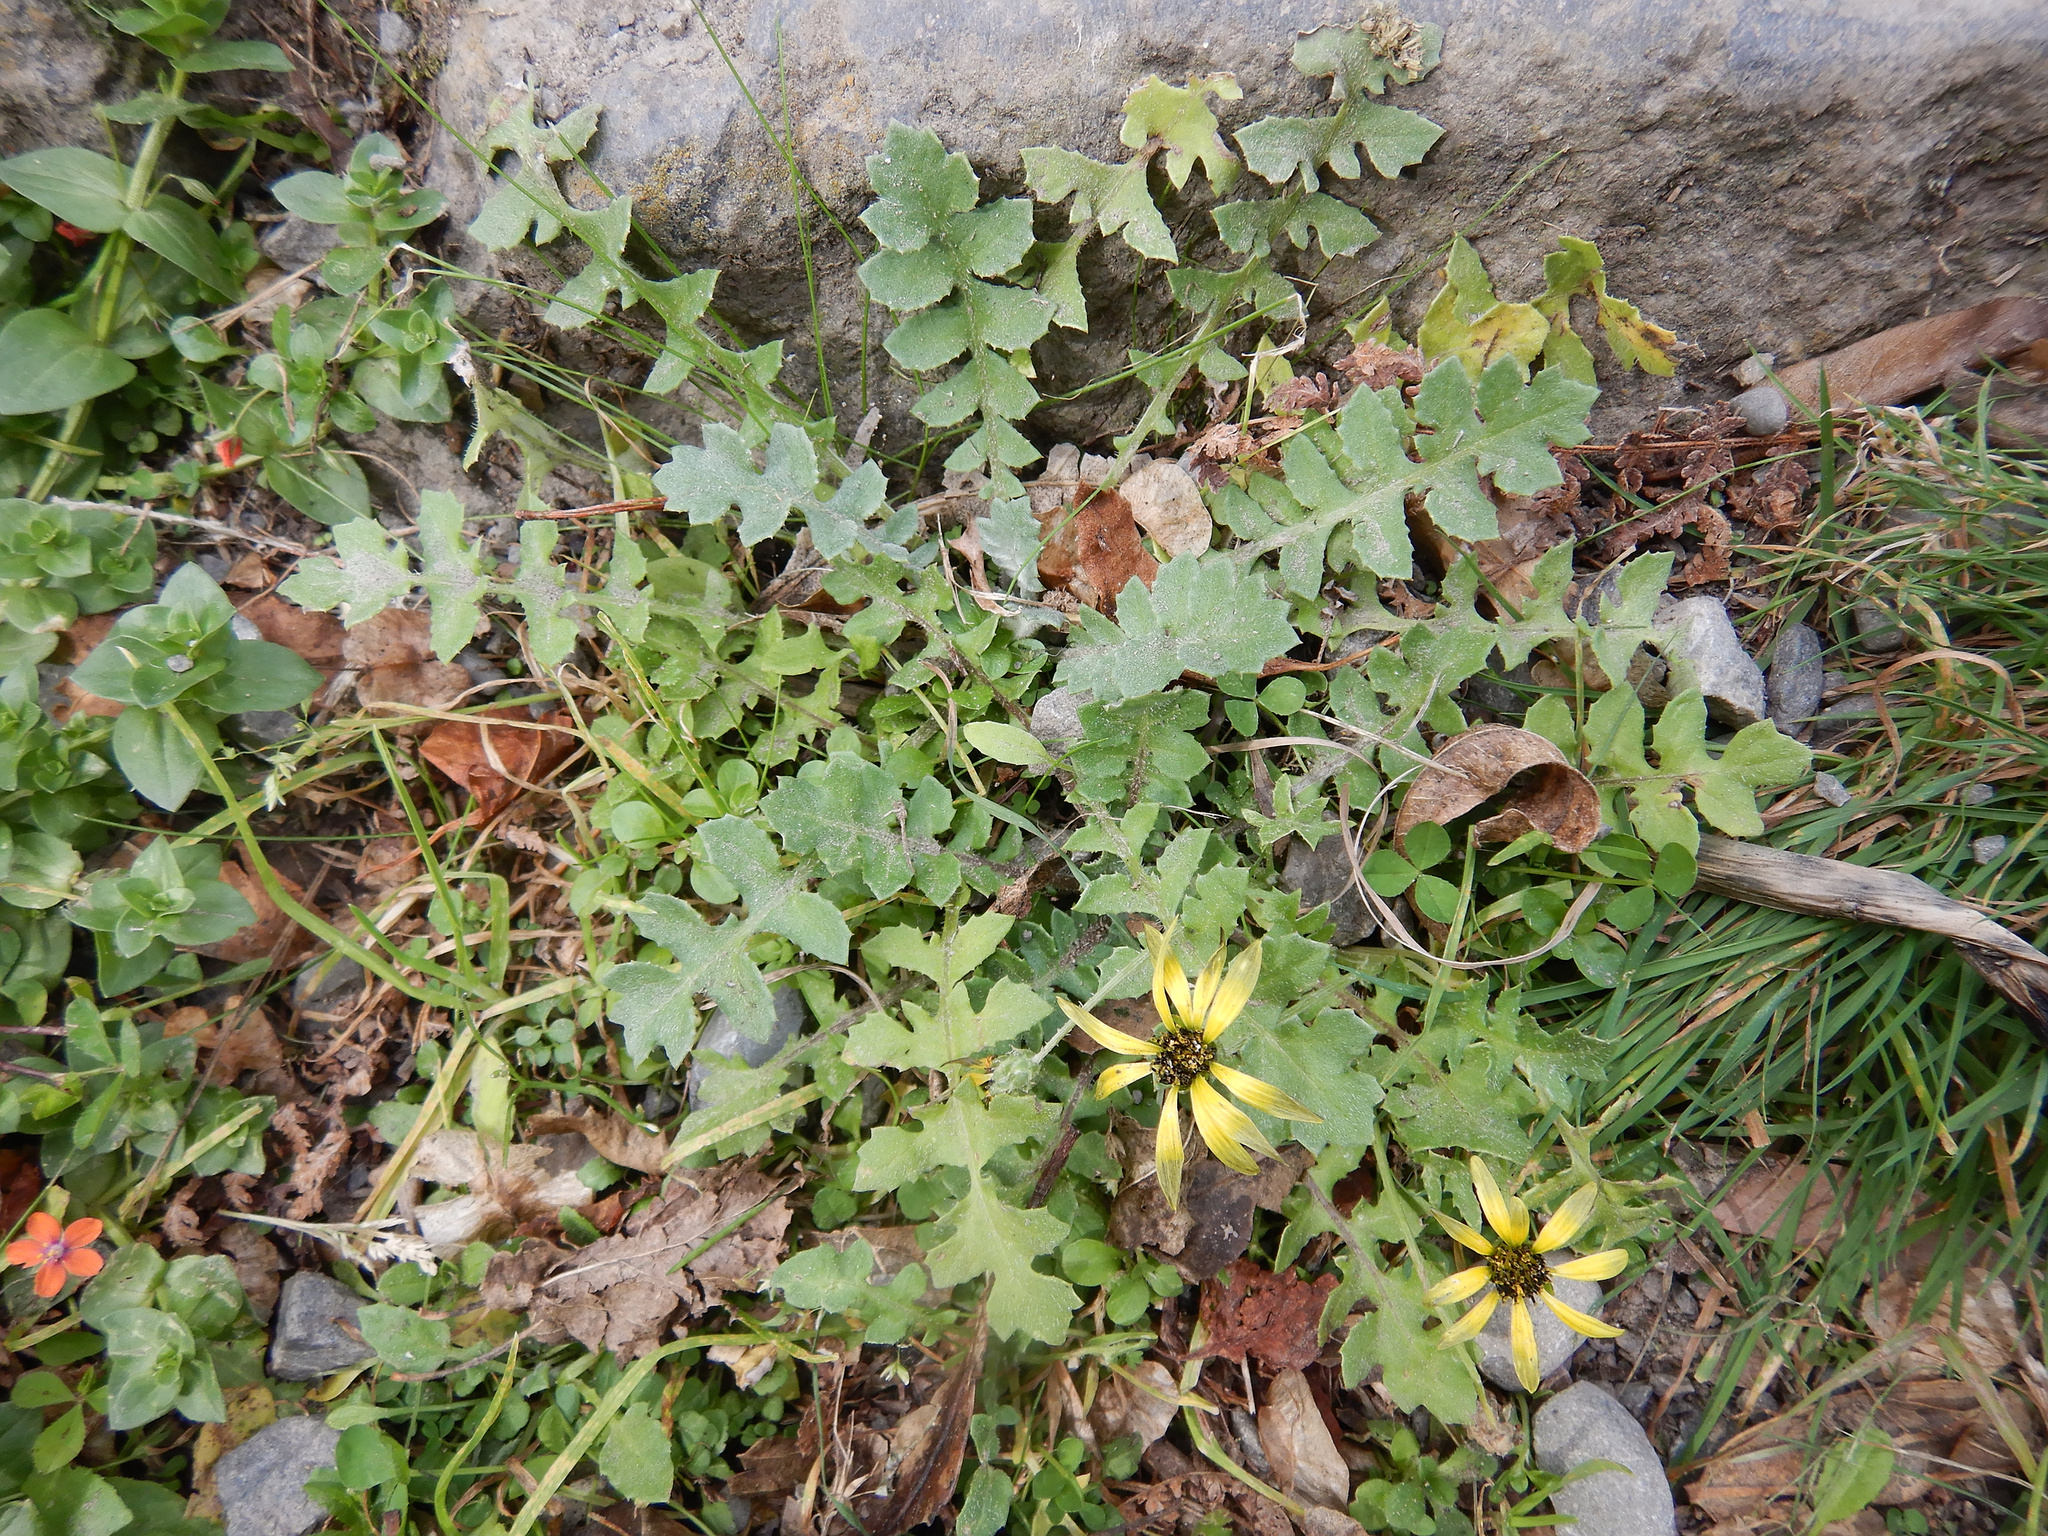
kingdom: Plantae
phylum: Tracheophyta
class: Magnoliopsida
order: Asterales
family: Asteraceae
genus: Arctotheca
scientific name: Arctotheca calendula
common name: Capeweed
